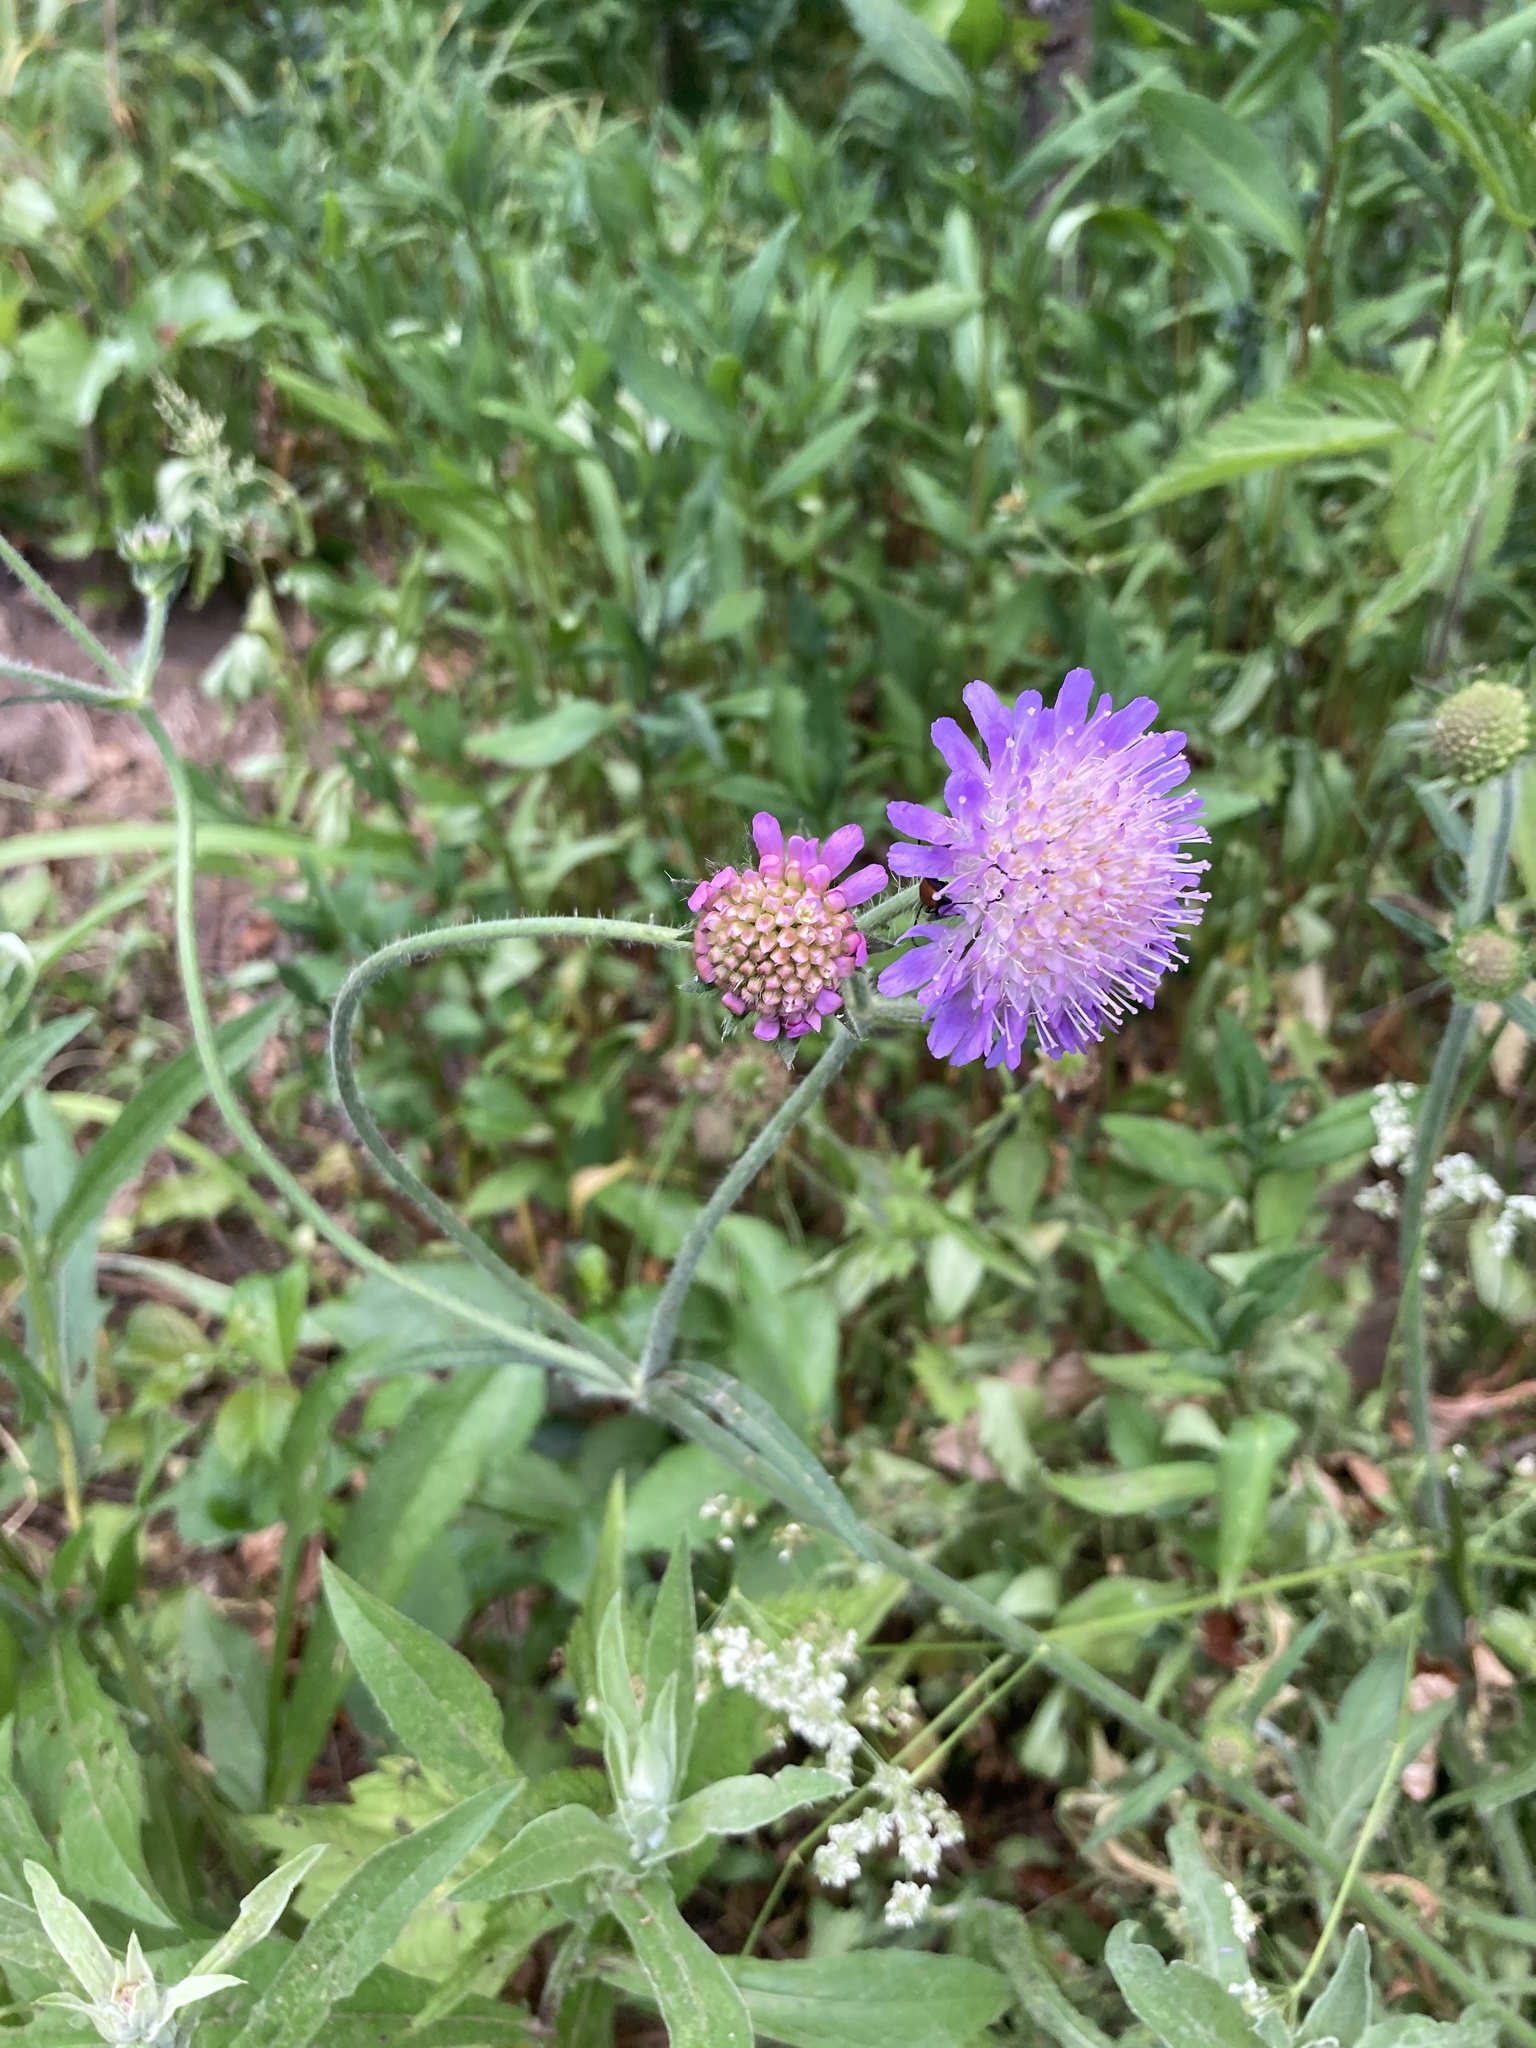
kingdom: Plantae
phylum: Tracheophyta
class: Magnoliopsida
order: Dipsacales
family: Caprifoliaceae
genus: Knautia
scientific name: Knautia arvensis
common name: Field scabiosa
